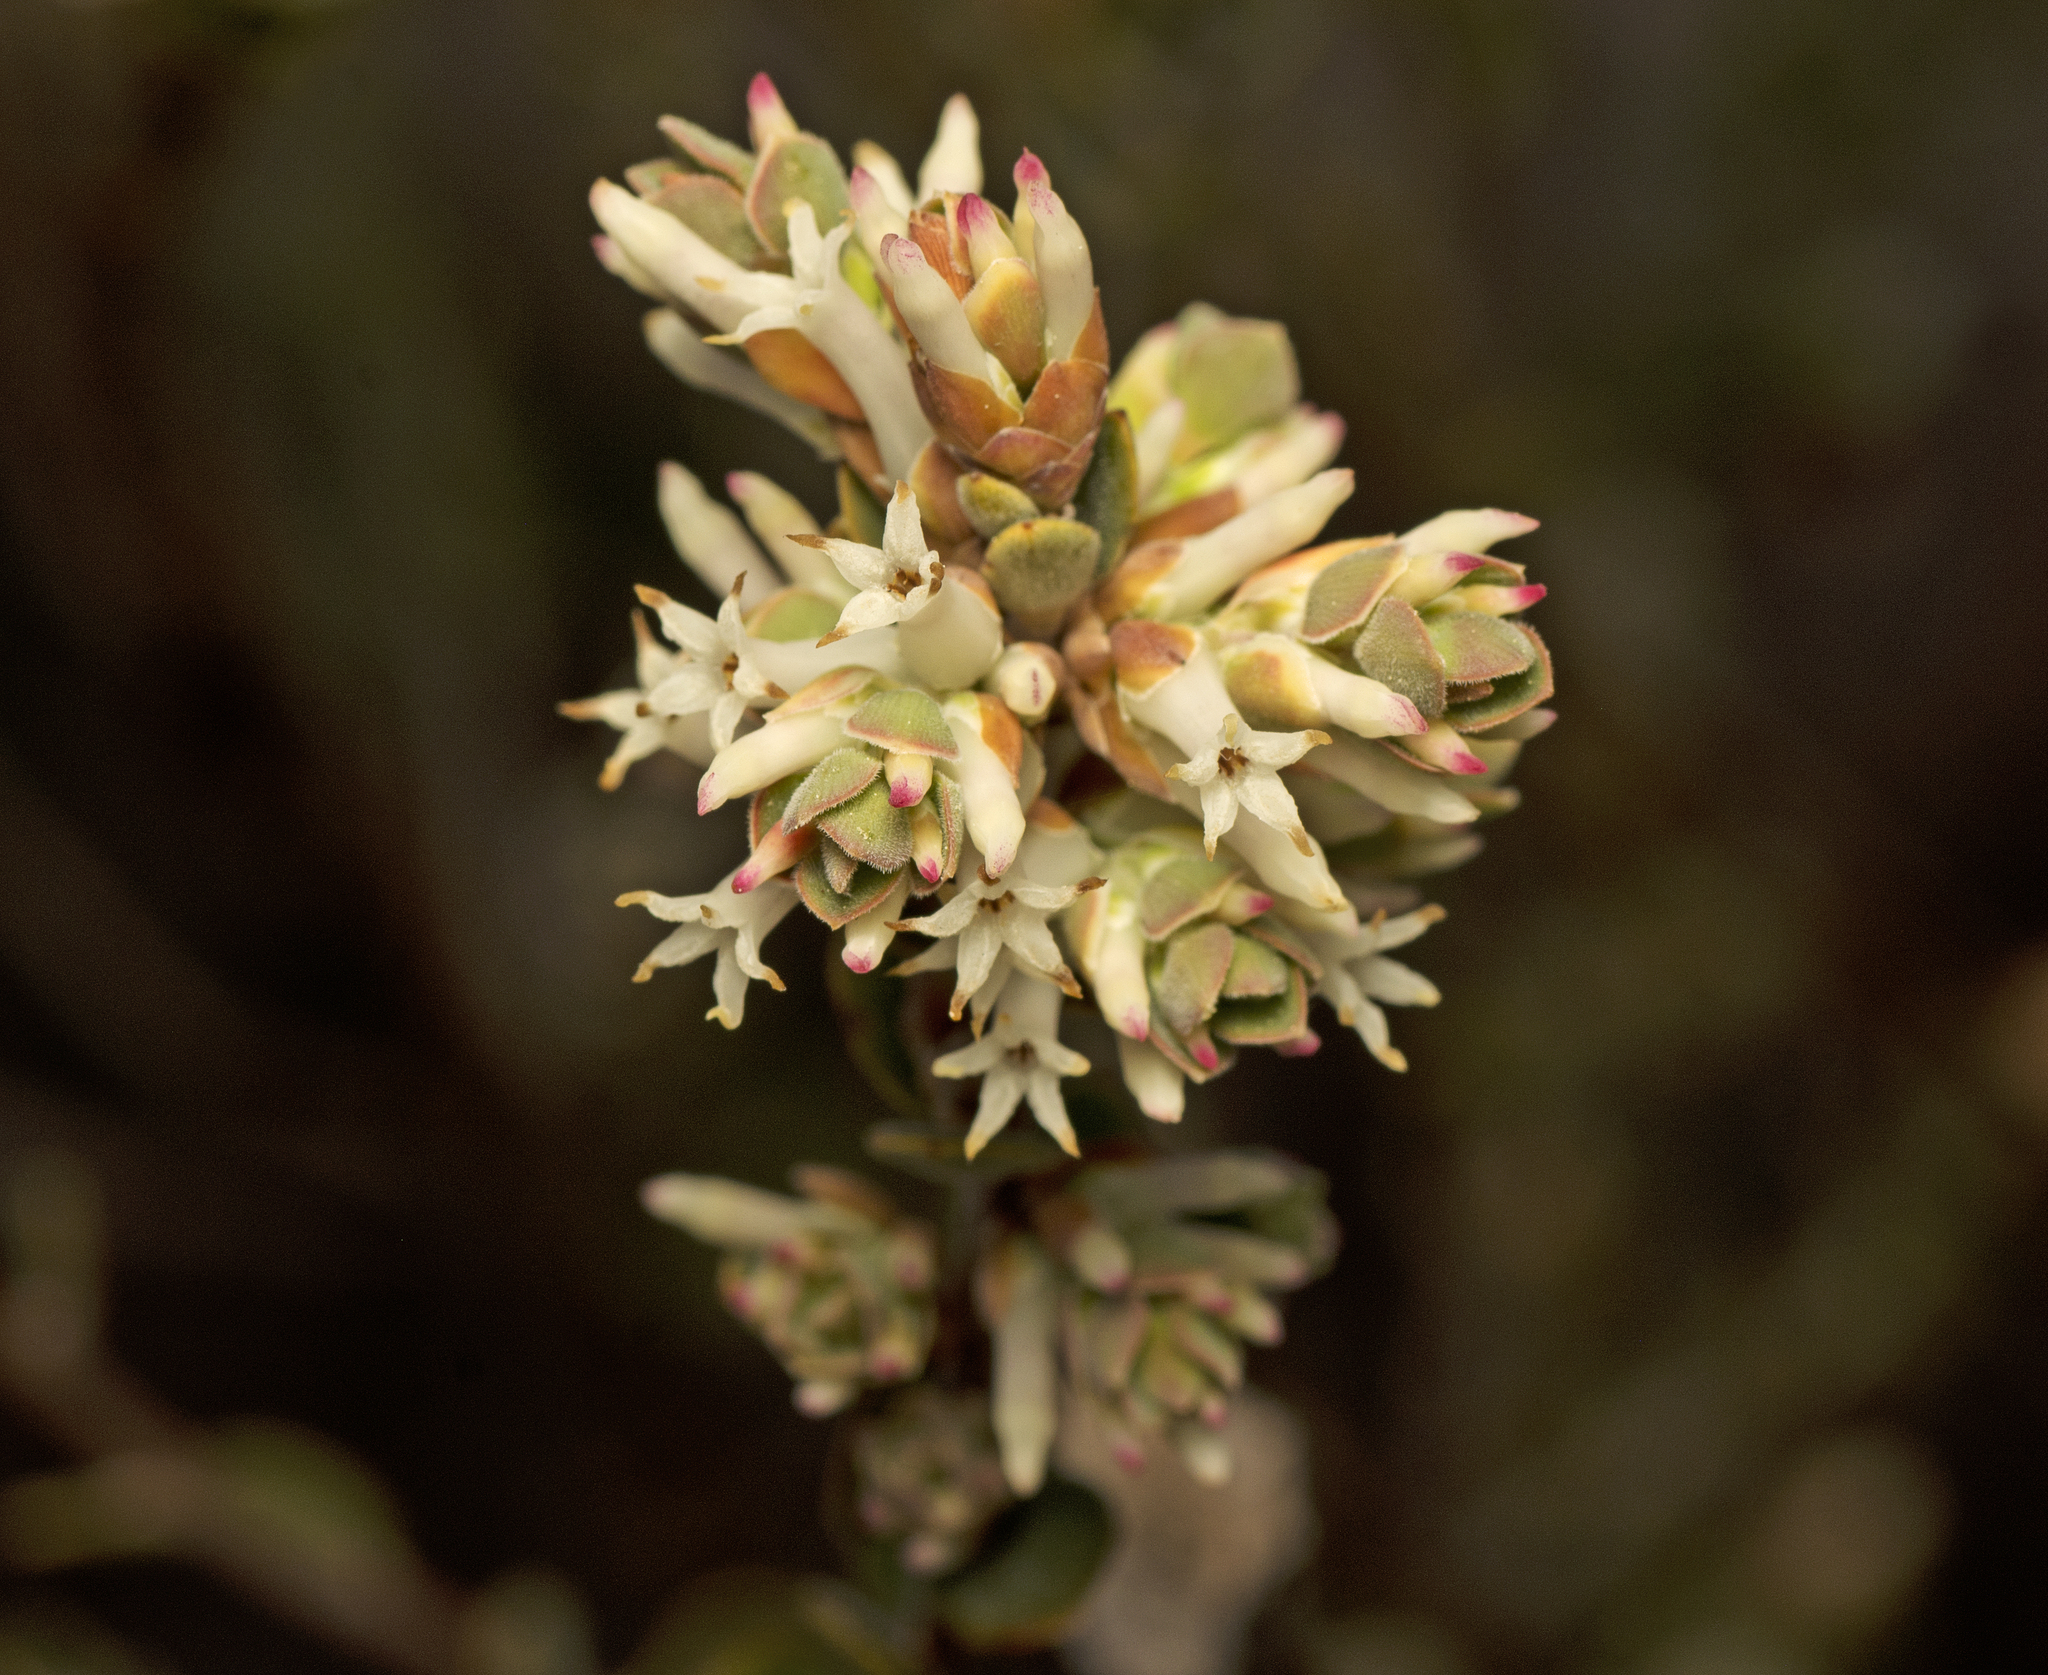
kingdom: Plantae
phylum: Tracheophyta
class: Magnoliopsida
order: Ericales
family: Ericaceae
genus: Brachyloma
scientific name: Brachyloma daphnoides
